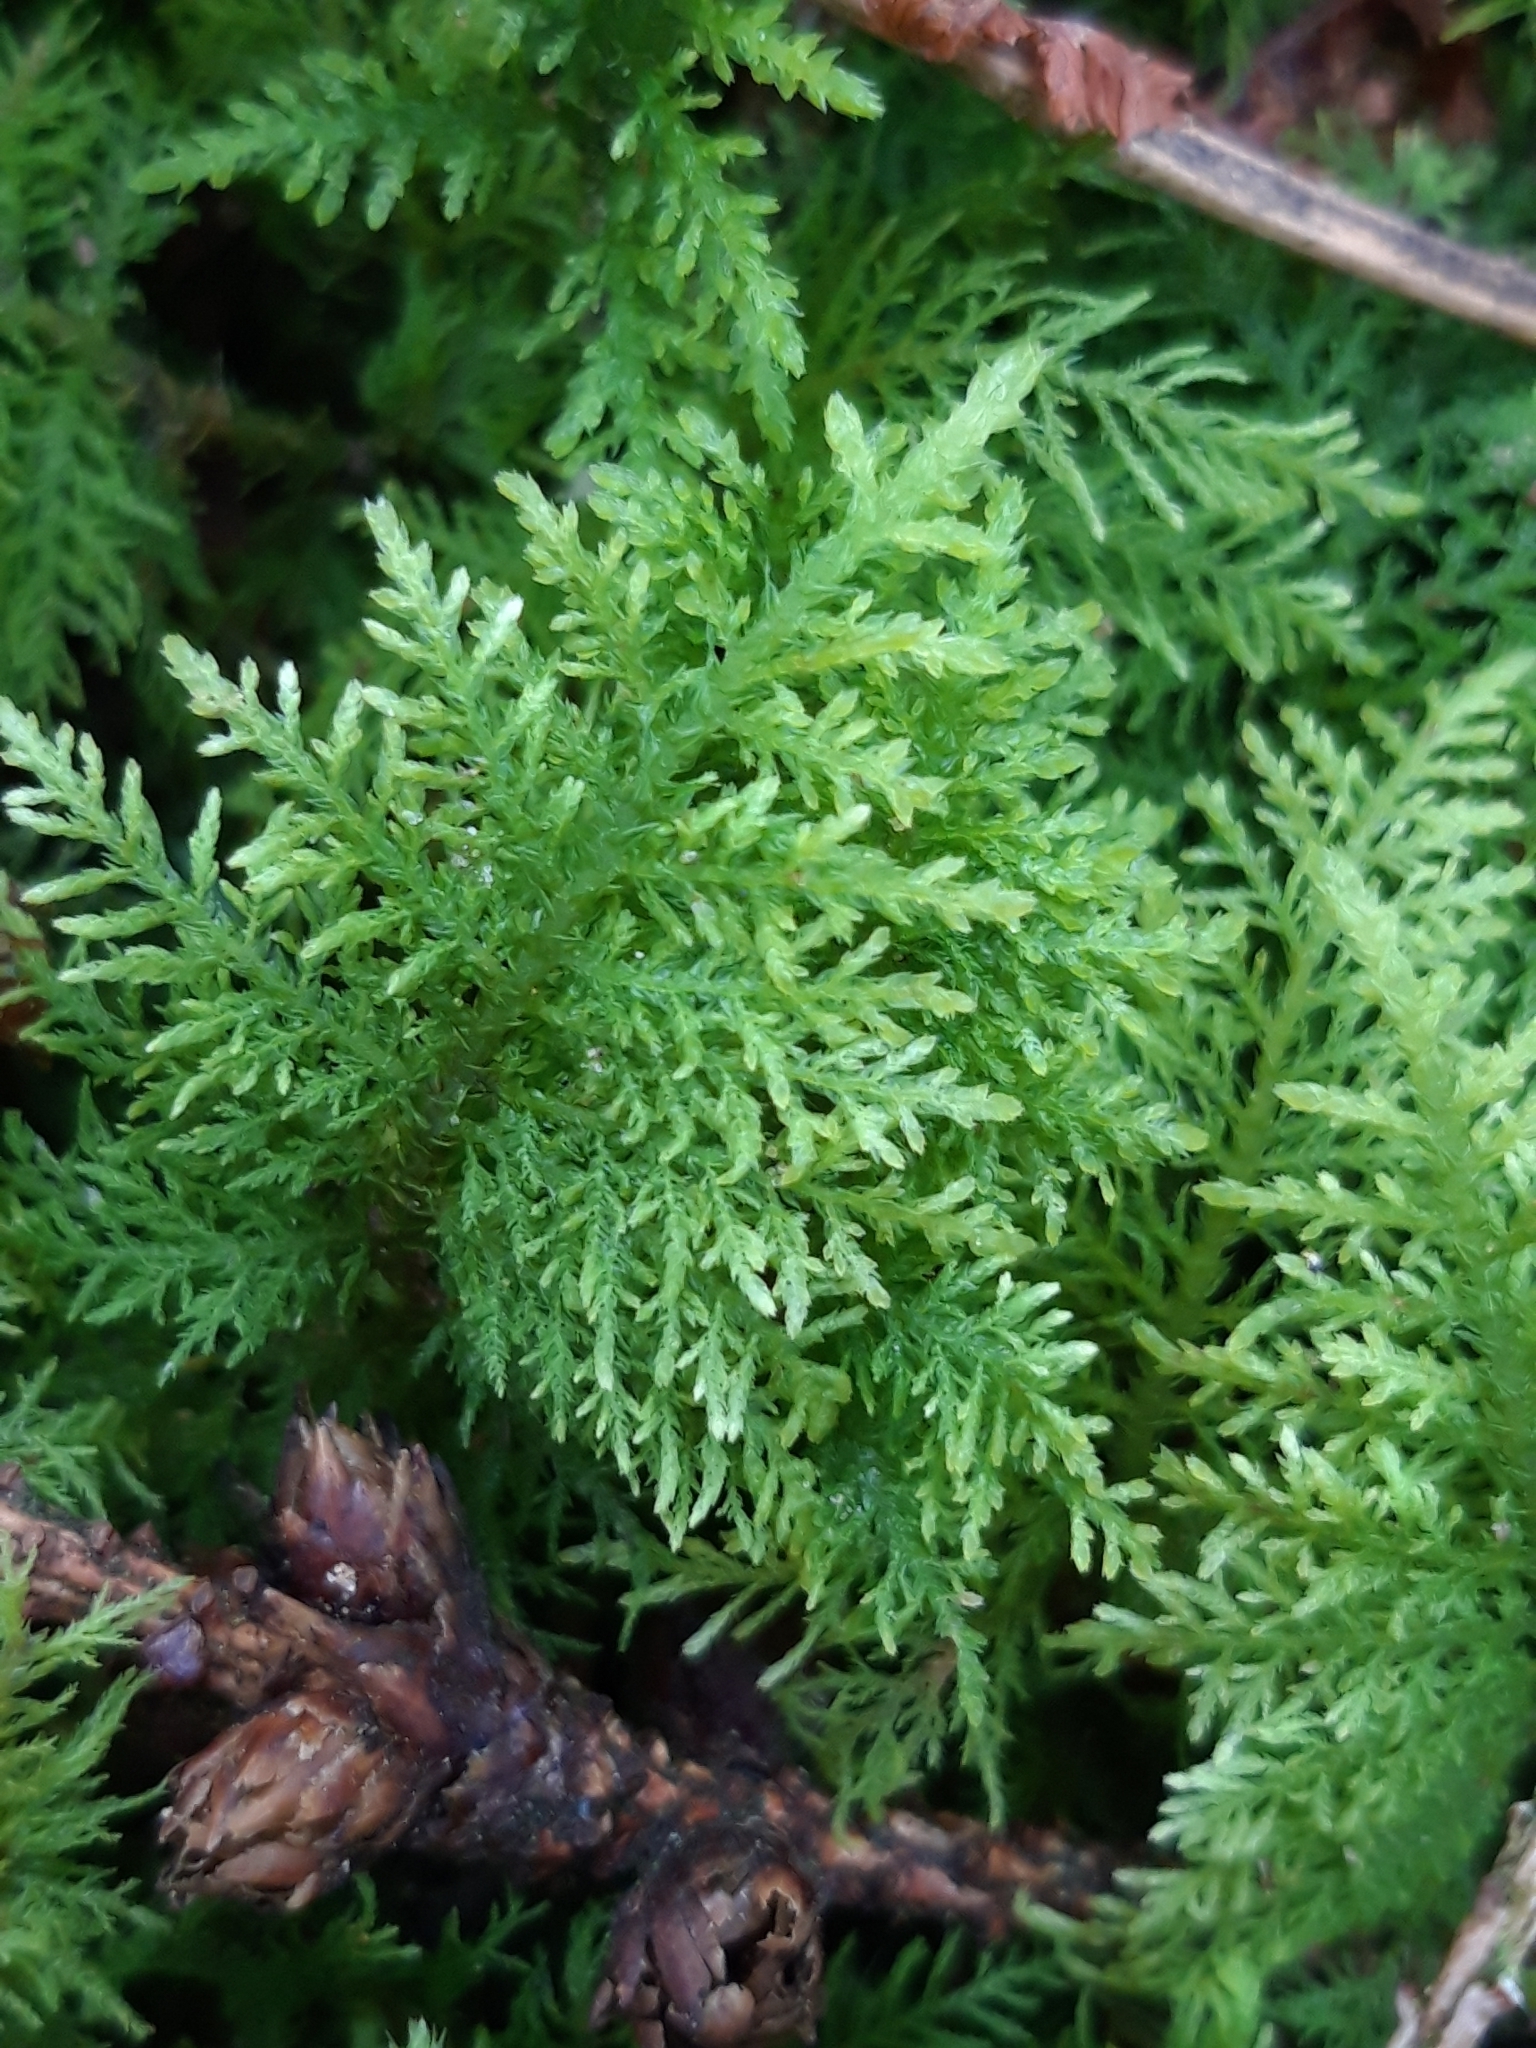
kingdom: Plantae
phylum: Bryophyta
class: Bryopsida
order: Hypnales
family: Thuidiaceae
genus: Thuidium
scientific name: Thuidium tamariscinum
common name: Common tamarisk-moss
